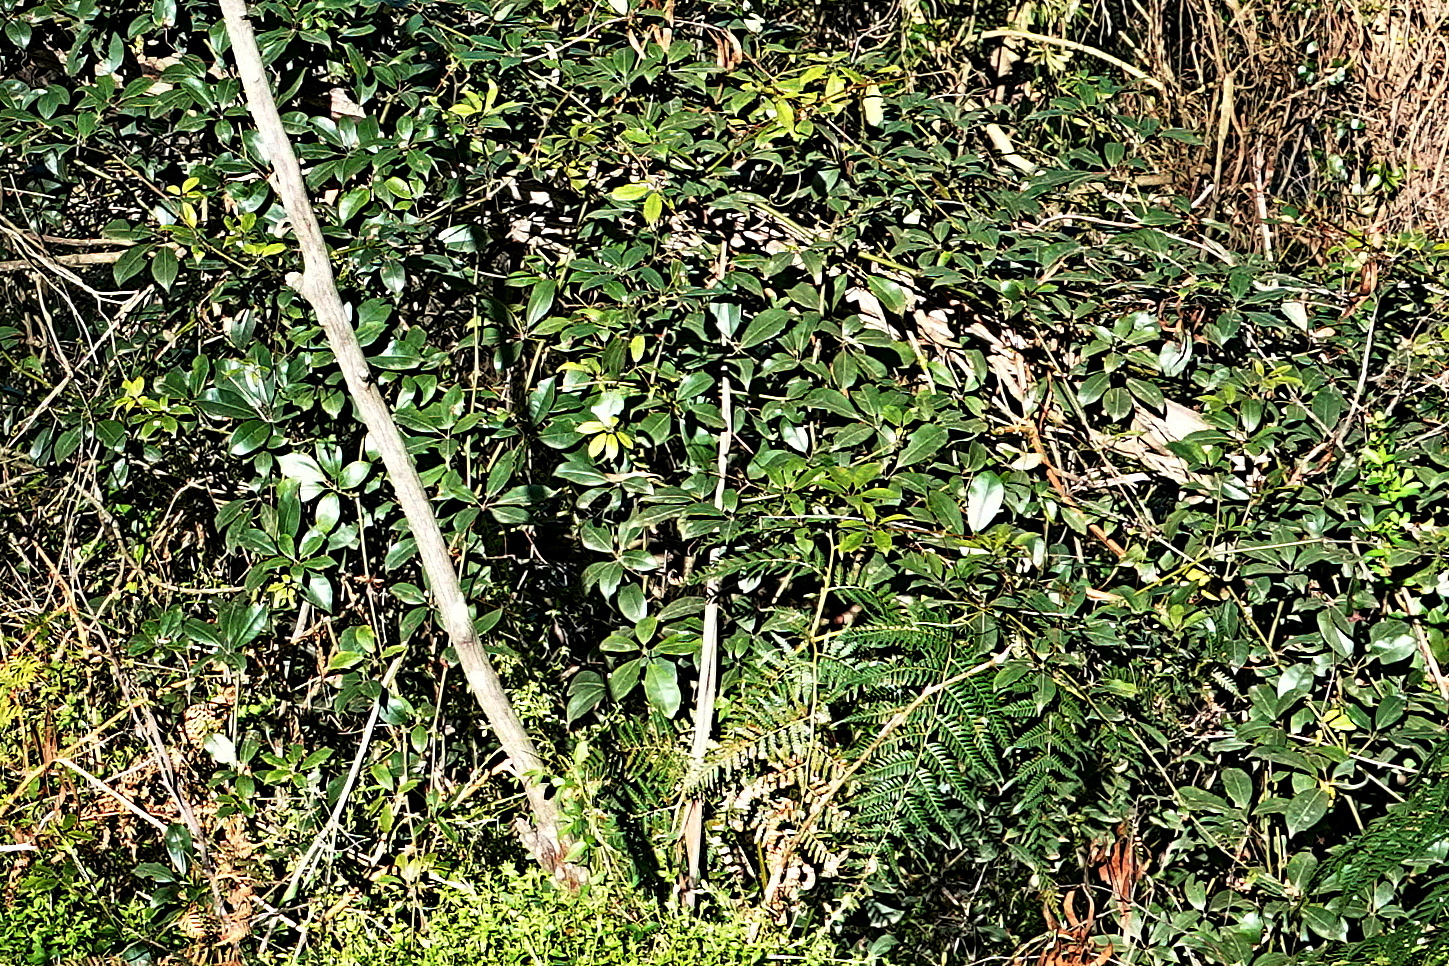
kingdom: Plantae
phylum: Tracheophyta
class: Magnoliopsida
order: Vitales
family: Vitaceae
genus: Nothocissus
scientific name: Nothocissus hypoglauca
